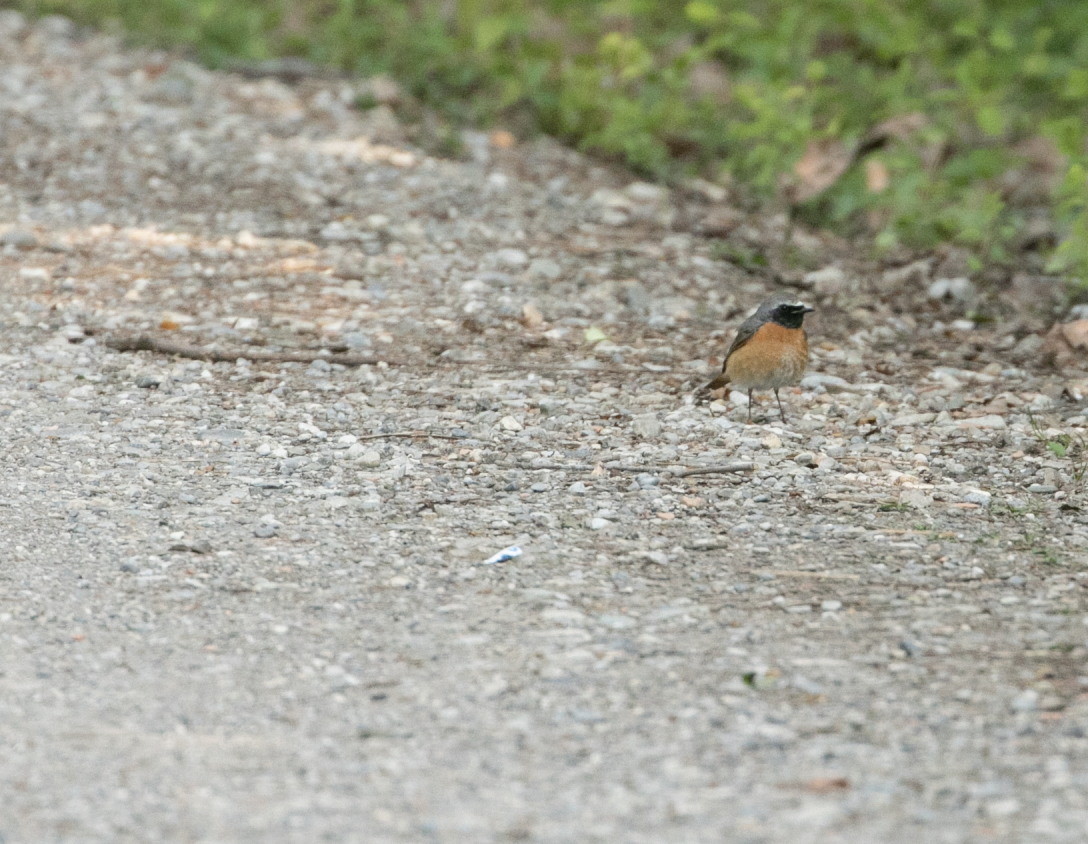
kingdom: Animalia
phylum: Chordata
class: Aves
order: Passeriformes
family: Muscicapidae
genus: Phoenicurus
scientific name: Phoenicurus phoenicurus
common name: Common redstart
